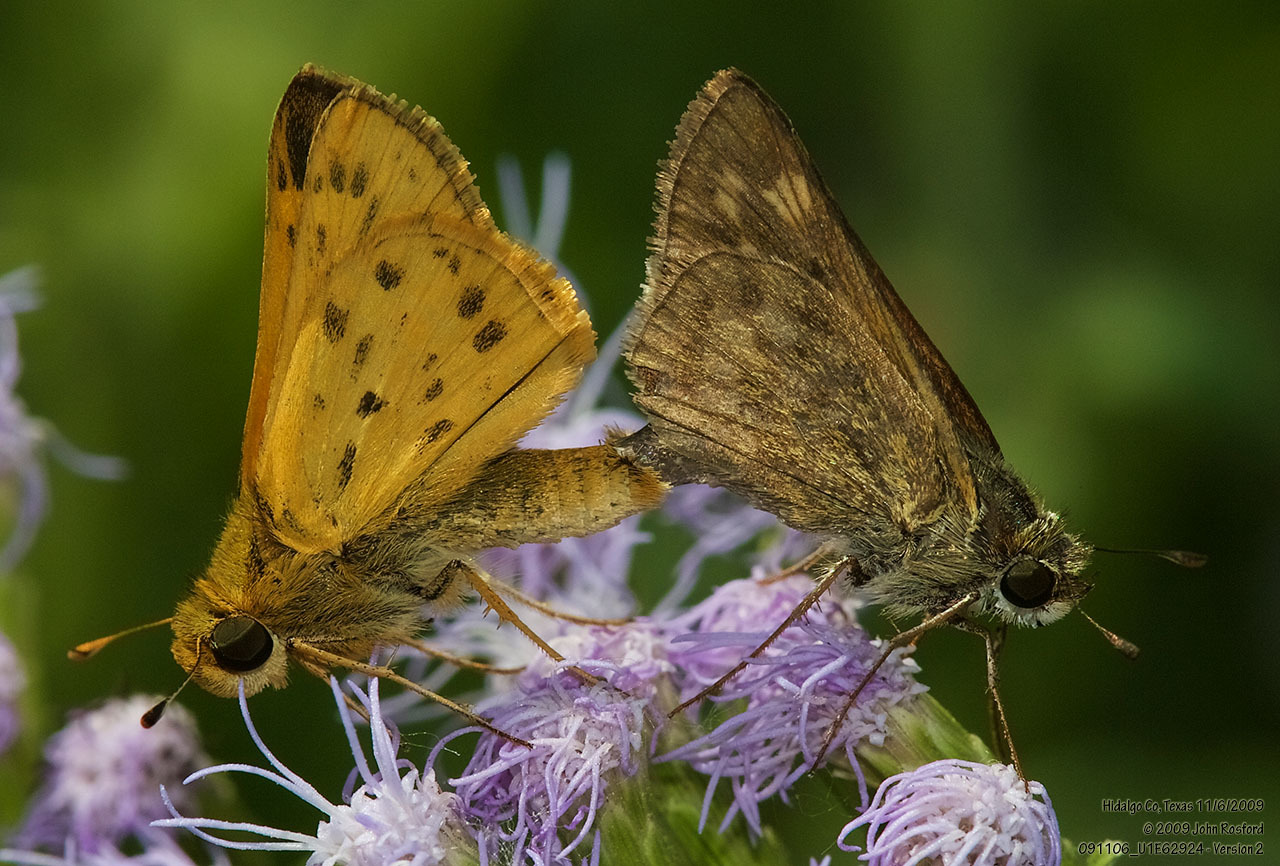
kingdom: Animalia
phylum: Arthropoda
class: Insecta
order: Lepidoptera
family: Hesperiidae
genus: Hylephila
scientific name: Hylephila phyleus
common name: Fiery skipper
